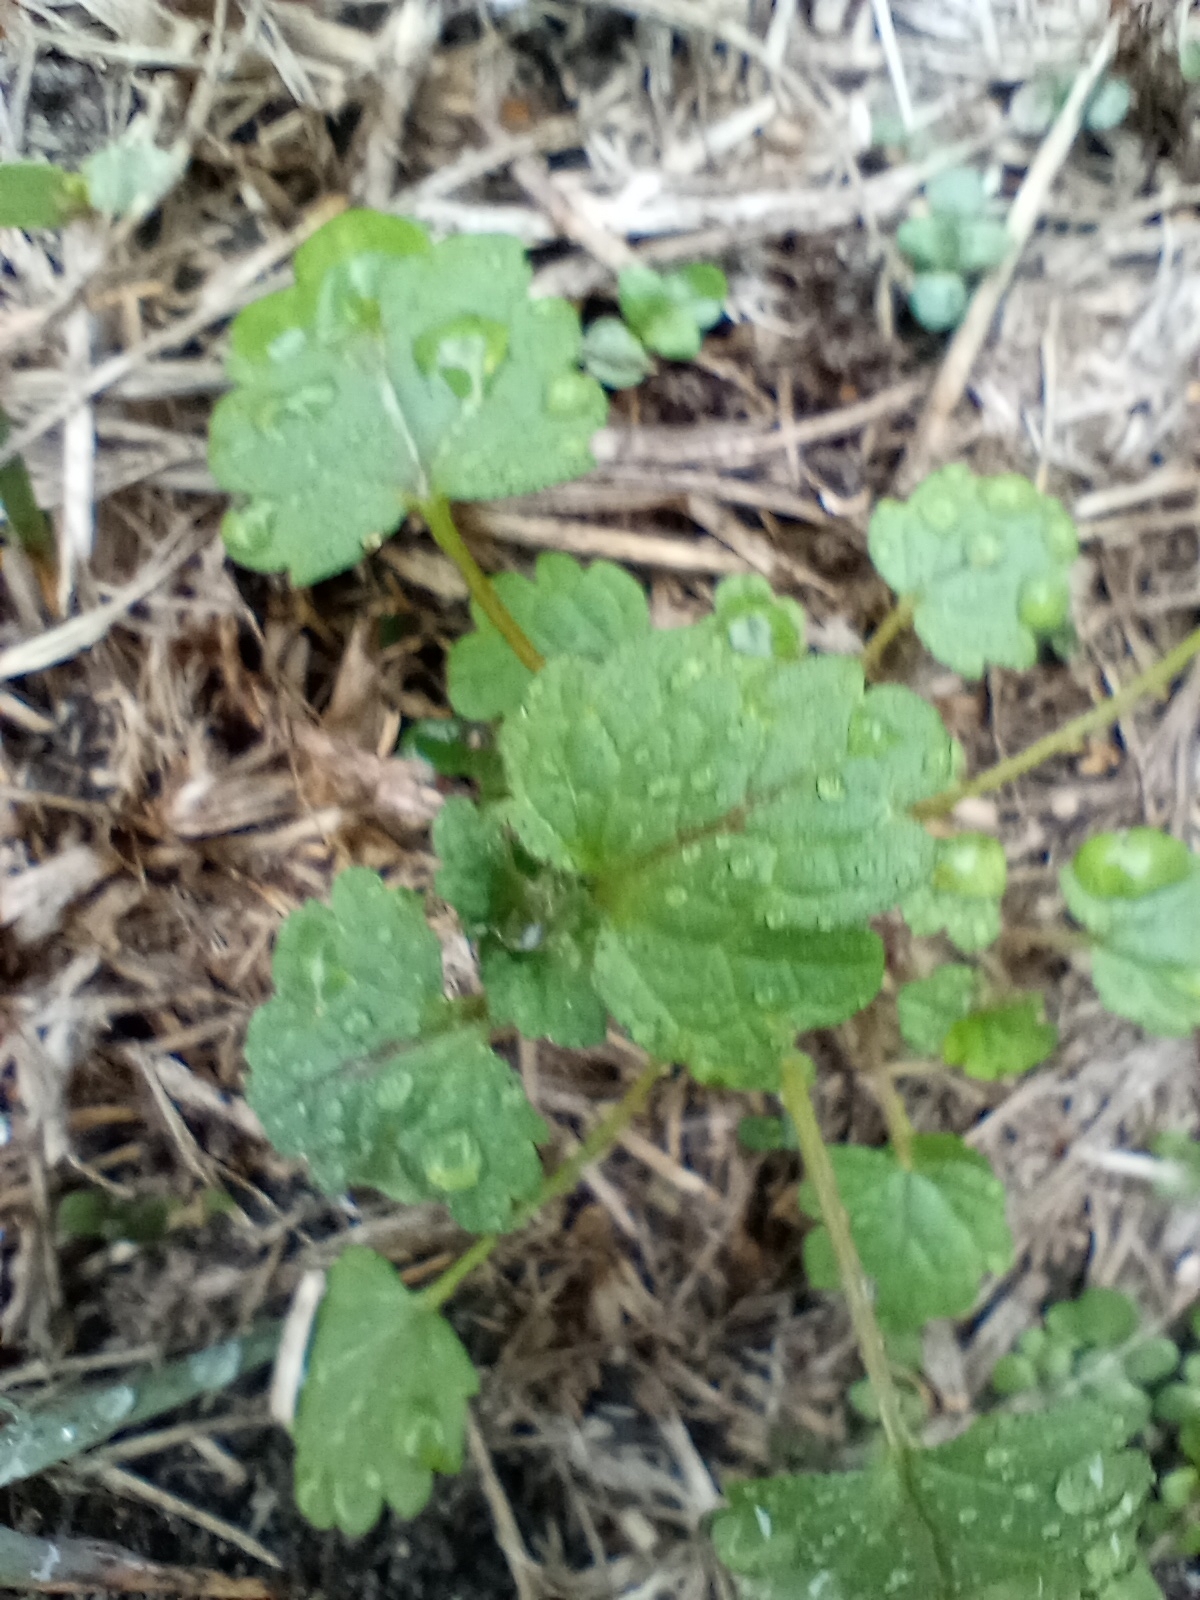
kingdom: Plantae
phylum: Tracheophyta
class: Magnoliopsida
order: Lamiales
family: Lamiaceae
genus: Lamium
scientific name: Lamium amplexicaule
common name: Henbit dead-nettle
